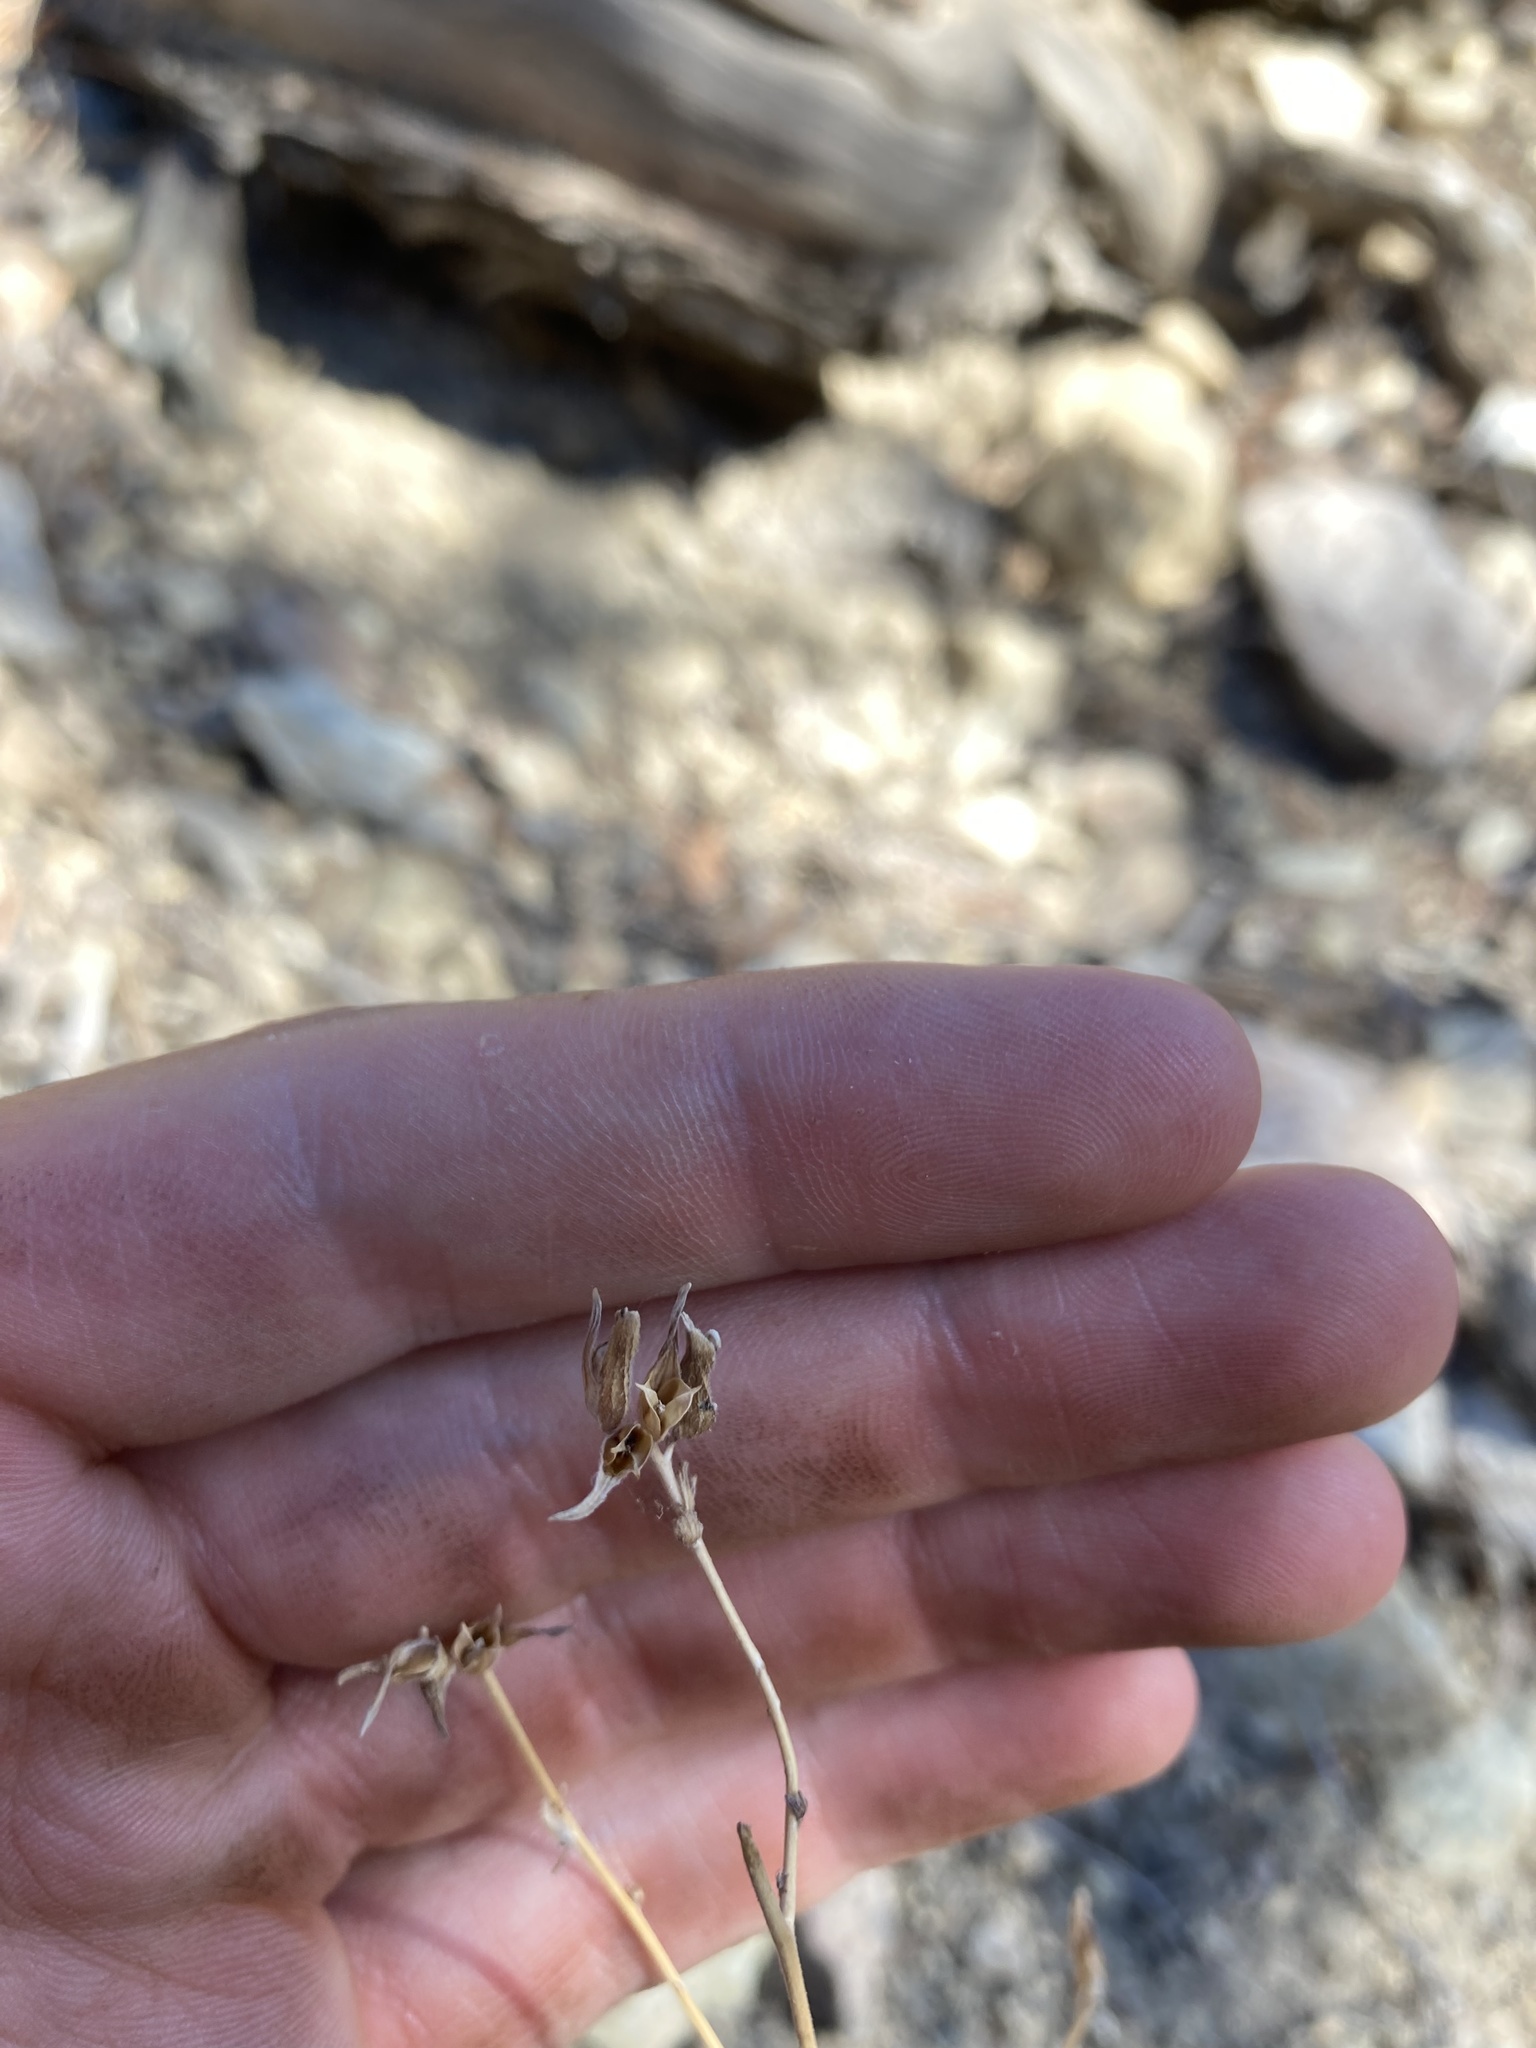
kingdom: Plantae
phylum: Tracheophyta
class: Magnoliopsida
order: Caryophyllales
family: Polygonaceae
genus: Eriogonum
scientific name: Eriogonum nudum
